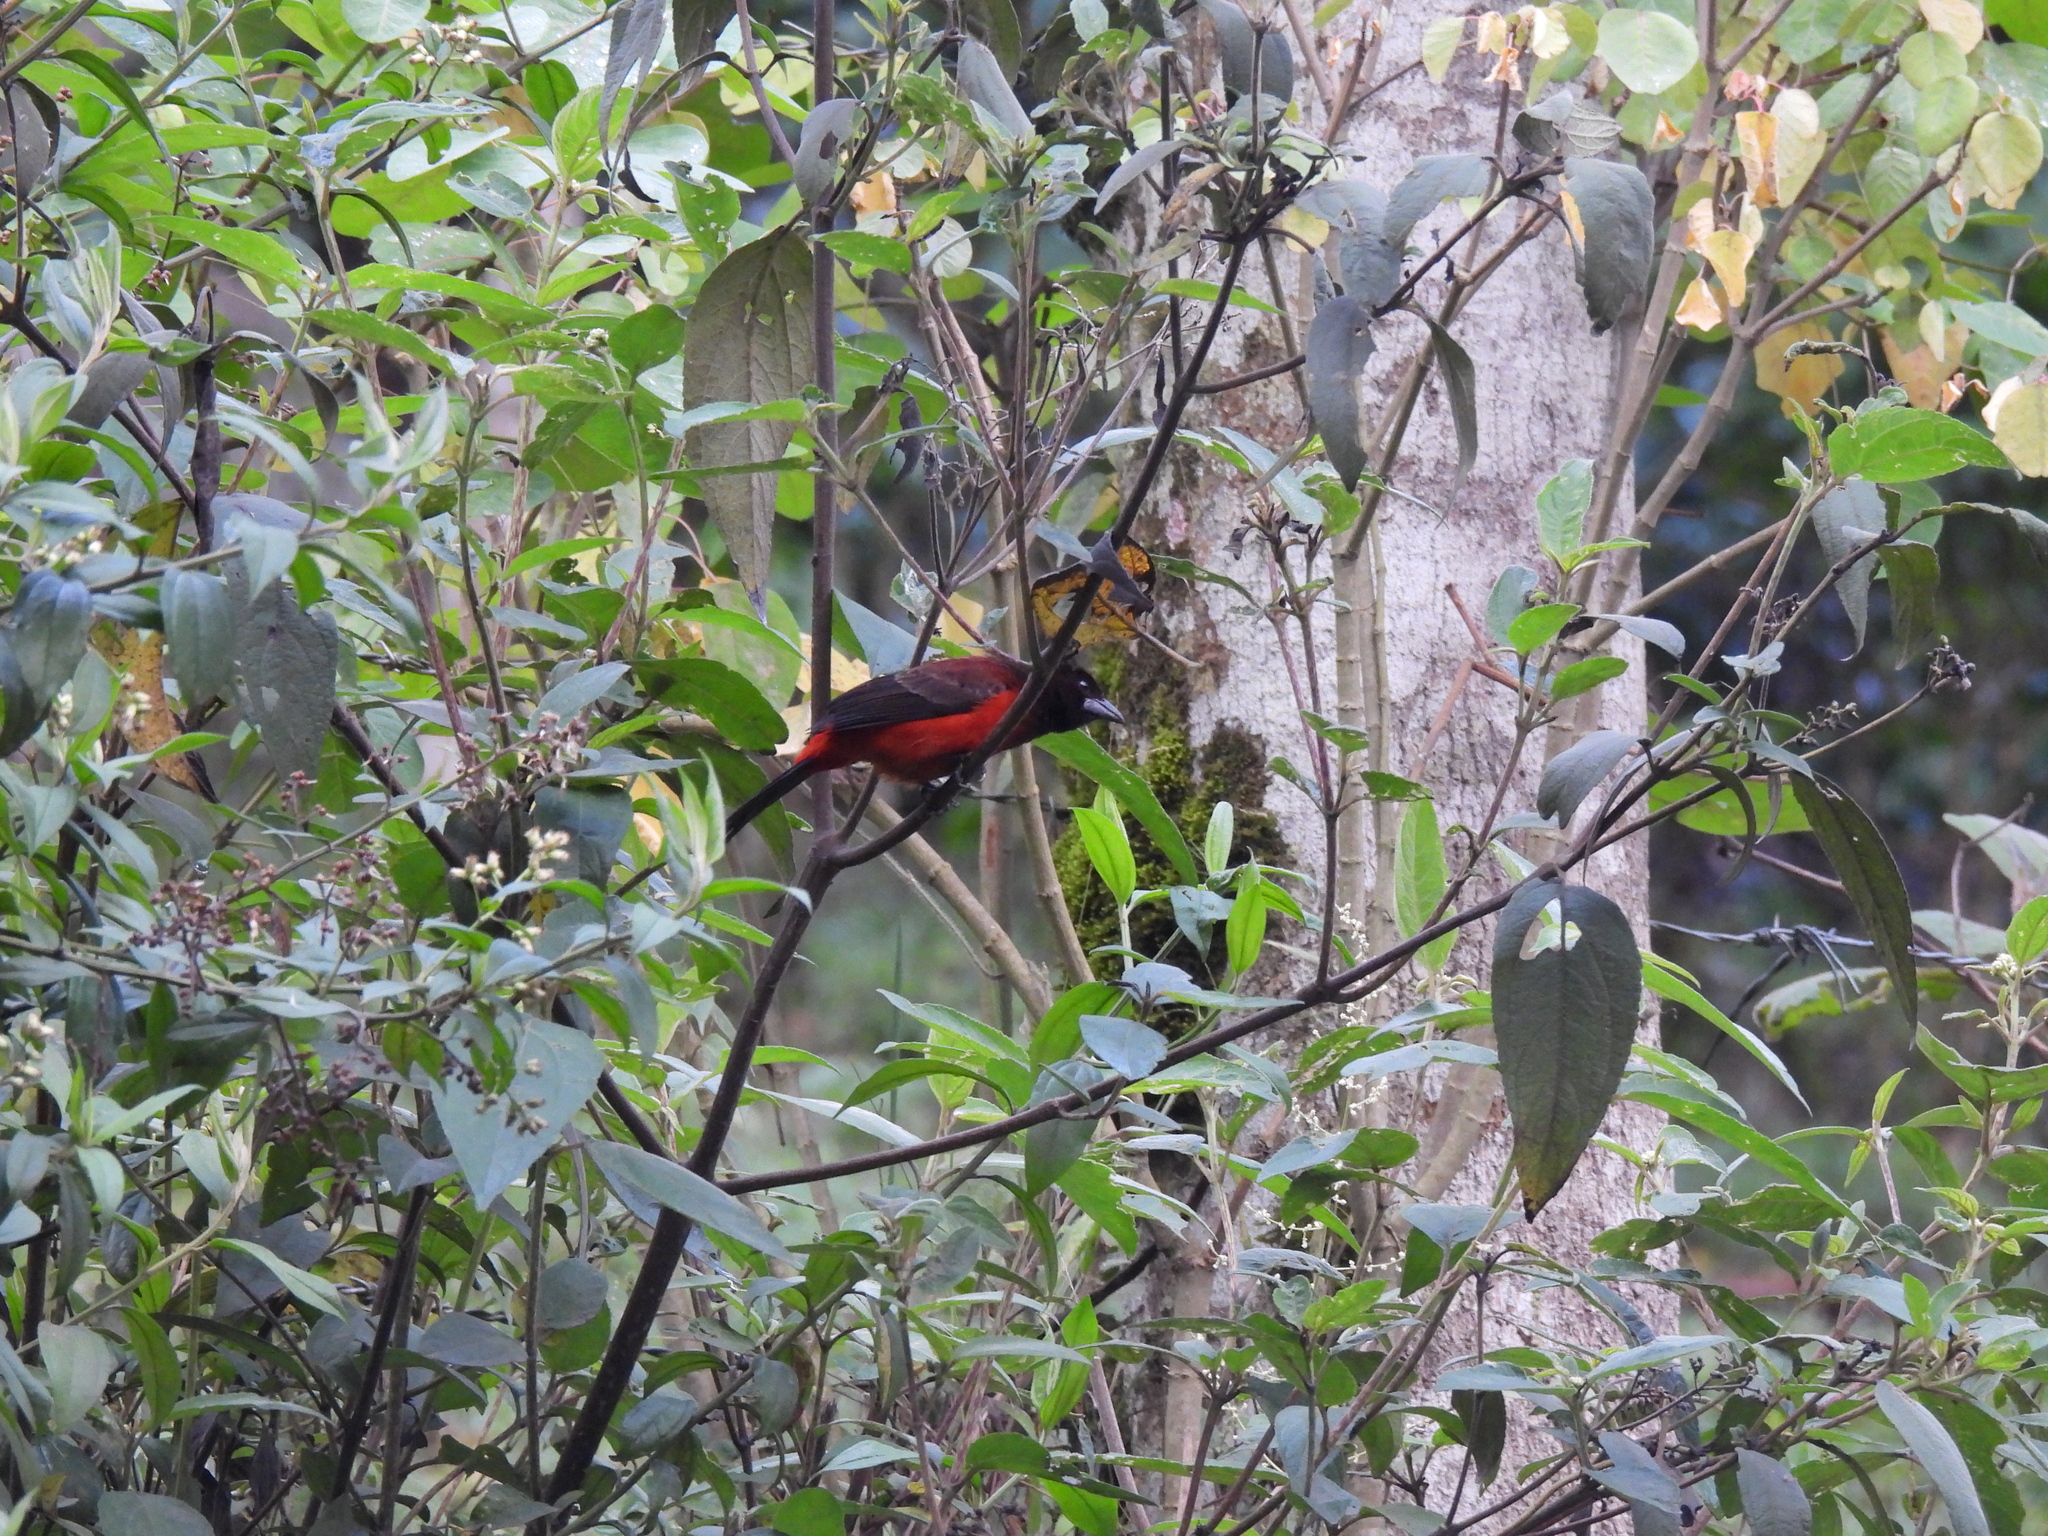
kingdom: Animalia
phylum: Chordata
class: Aves
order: Passeriformes
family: Thraupidae
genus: Ramphocelus
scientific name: Ramphocelus dimidiatus
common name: Crimson-backed tanager
